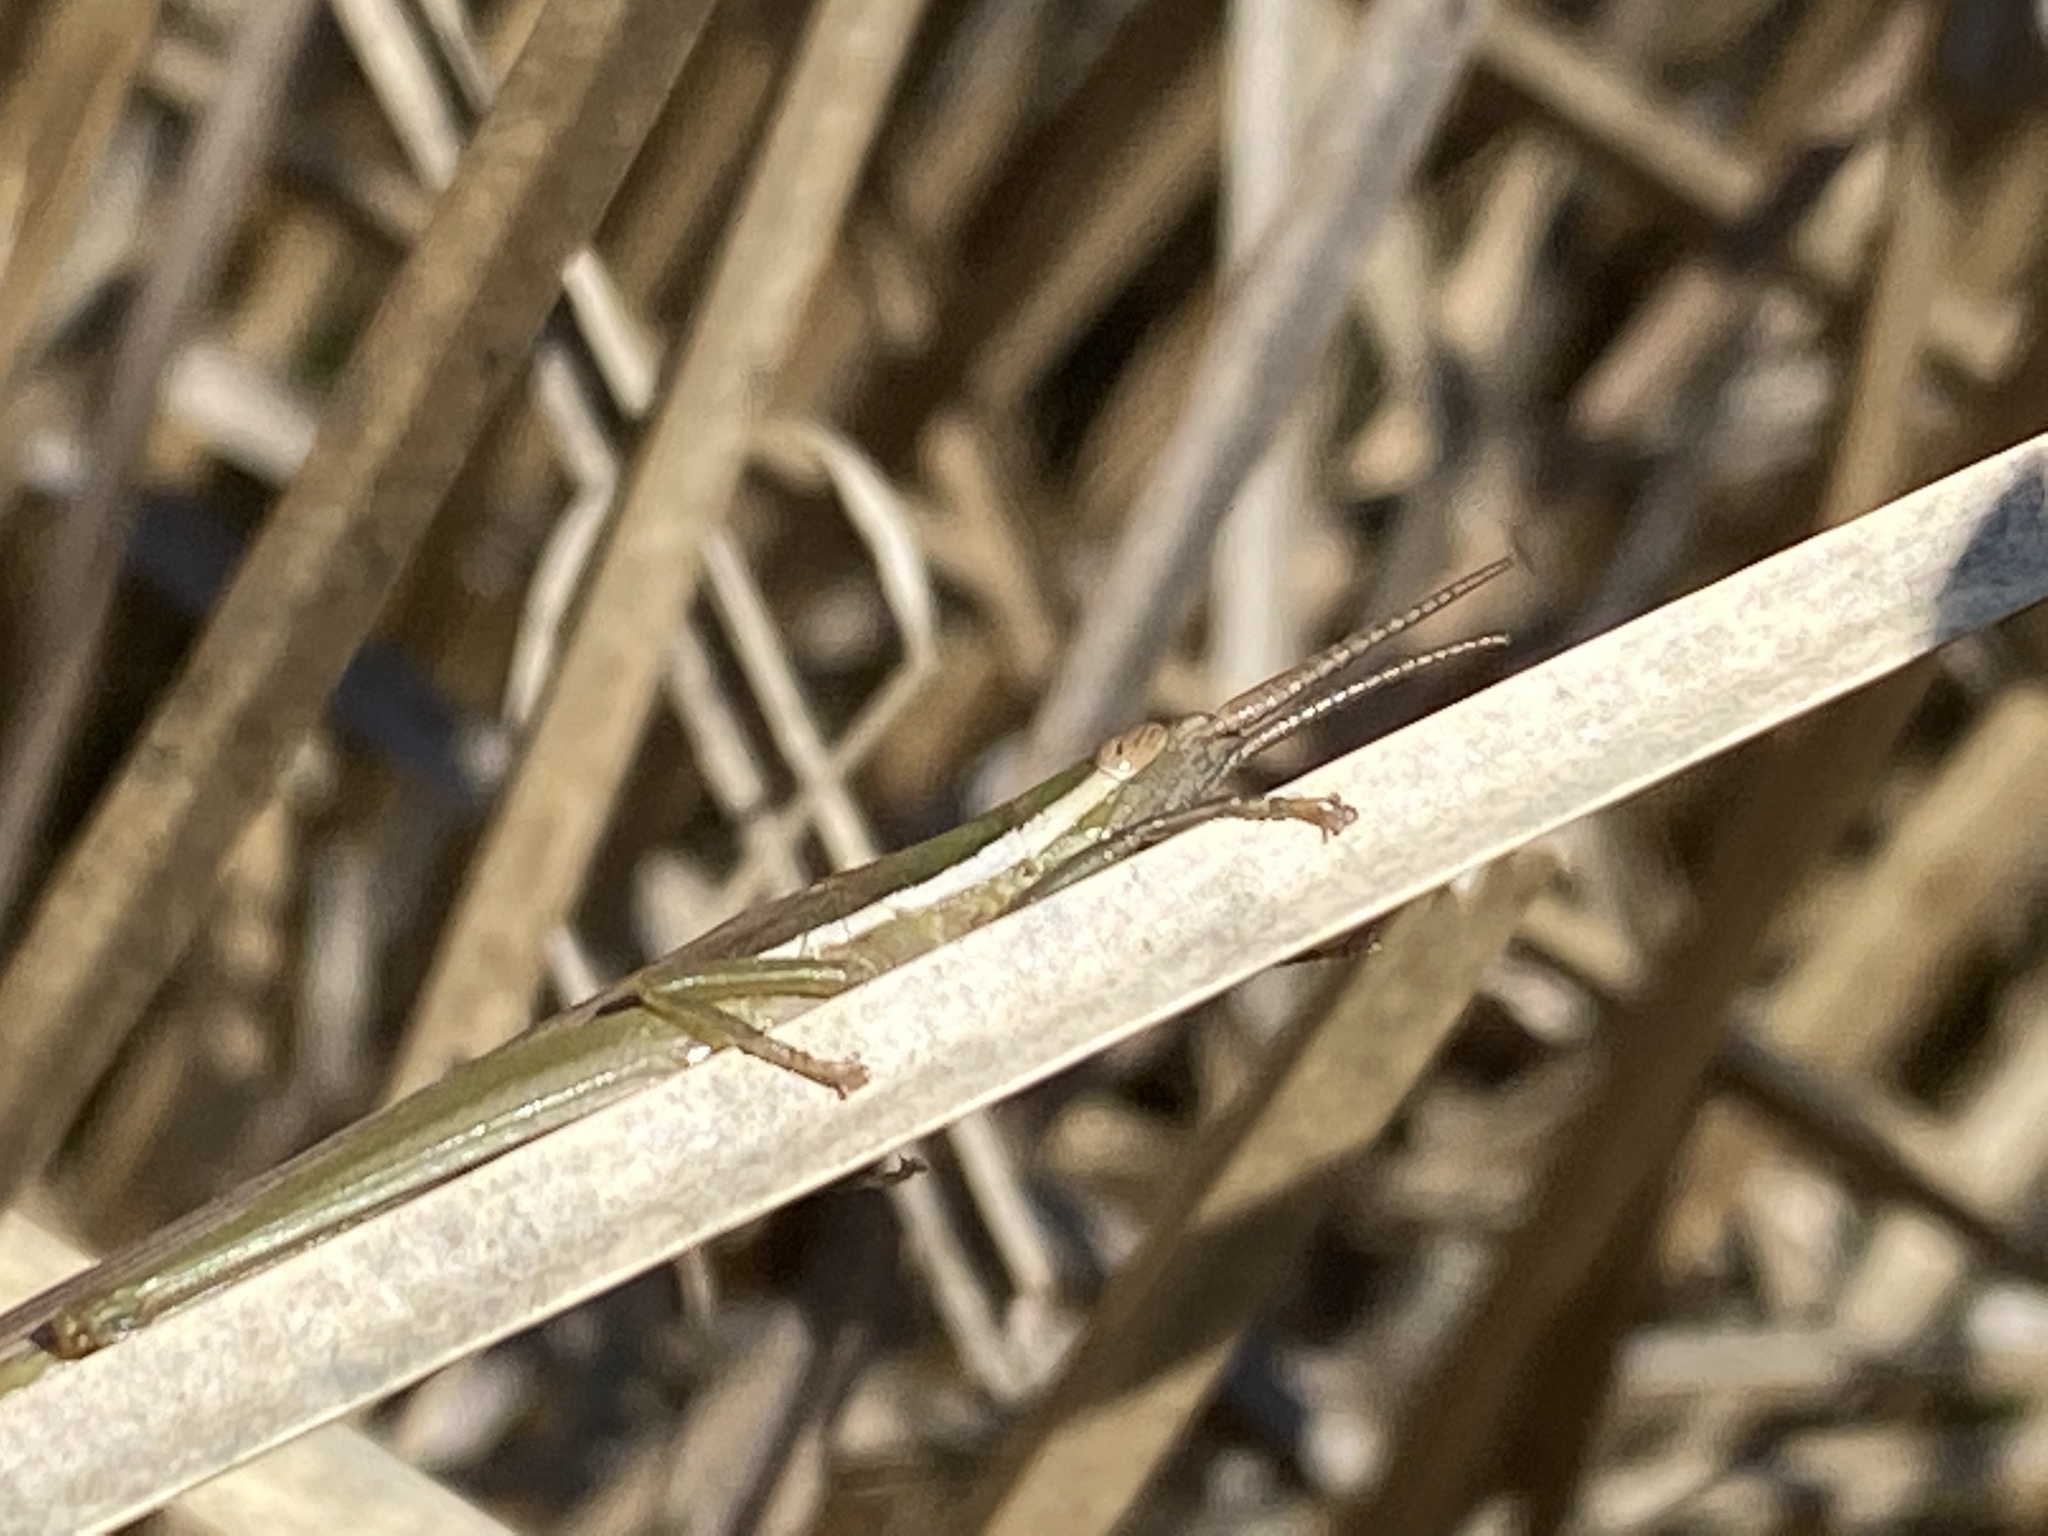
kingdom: Animalia
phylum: Arthropoda
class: Insecta
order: Orthoptera
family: Acrididae
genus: Leptysma
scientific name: Leptysma marginicollis
